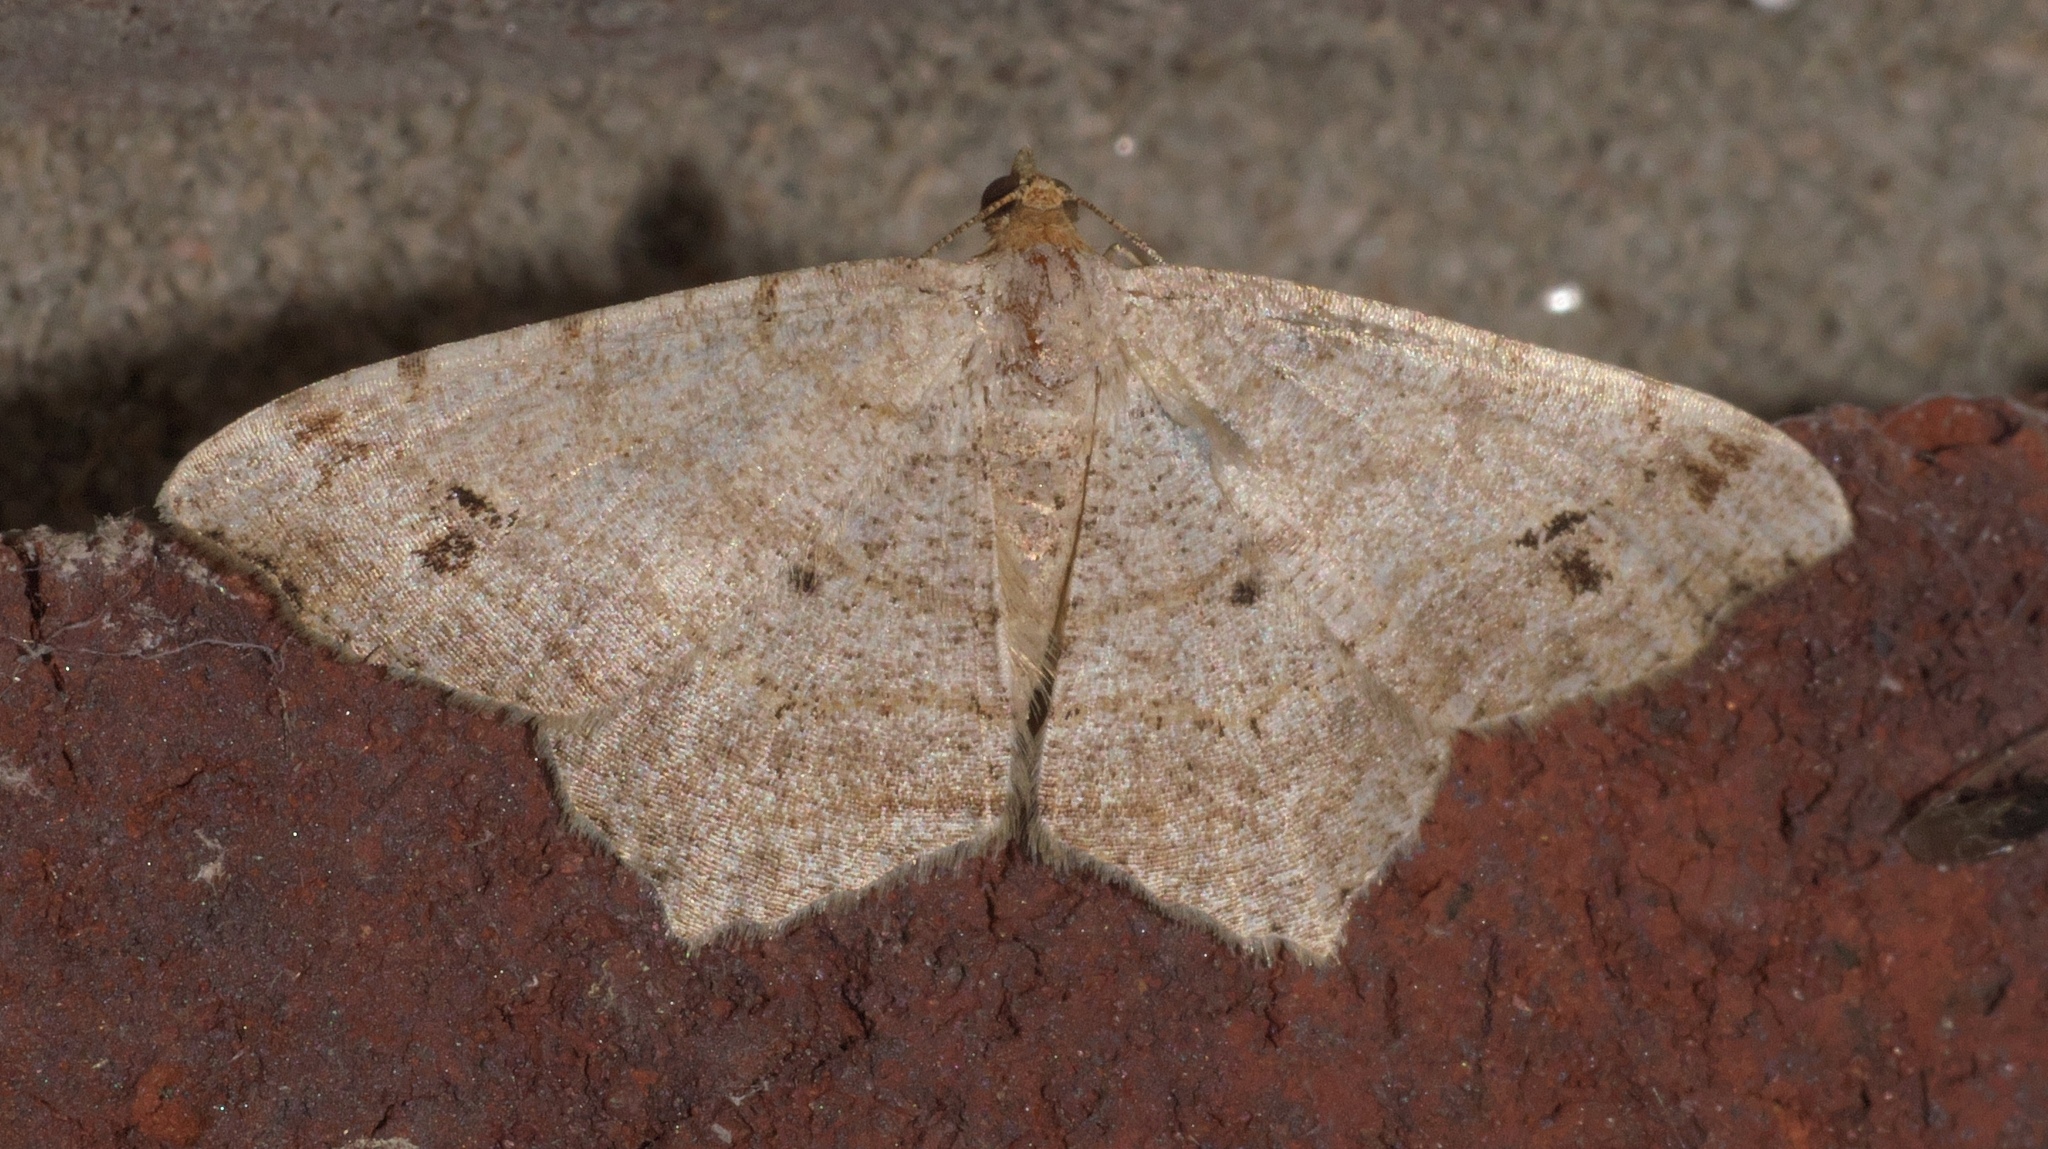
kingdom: Animalia
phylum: Arthropoda
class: Insecta
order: Lepidoptera
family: Geometridae
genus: Macaria
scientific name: Macaria aemulataria
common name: Common angle
